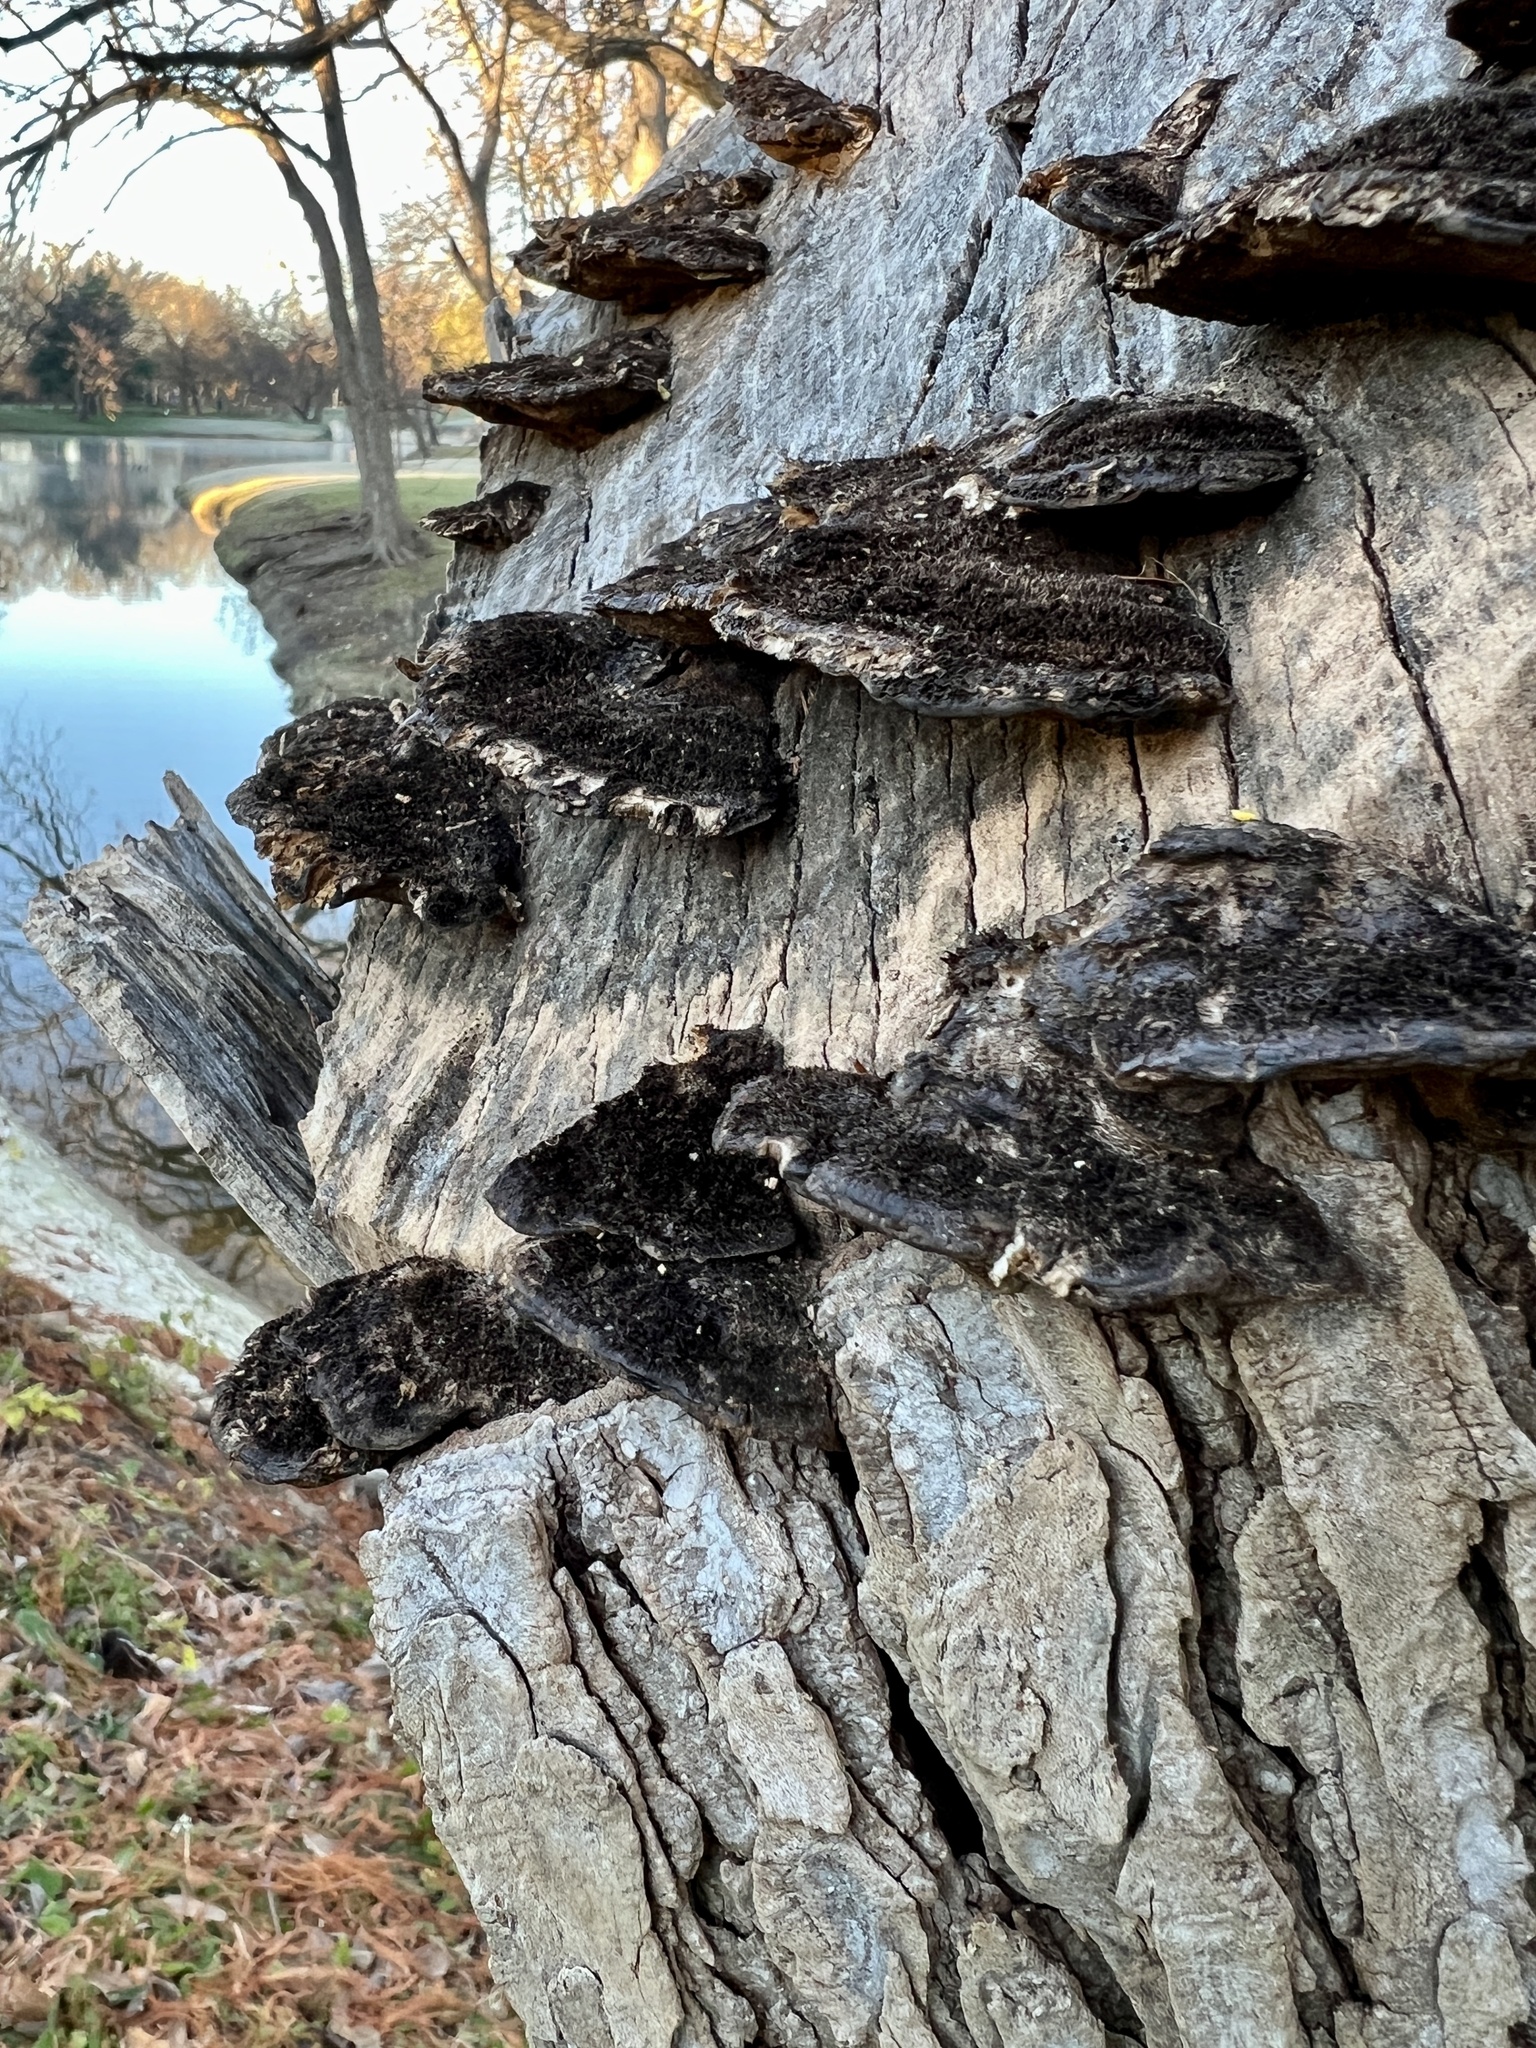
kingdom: Fungi
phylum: Basidiomycota
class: Agaricomycetes
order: Polyporales
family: Cerrenaceae
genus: Cerrena
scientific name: Cerrena hydnoides
